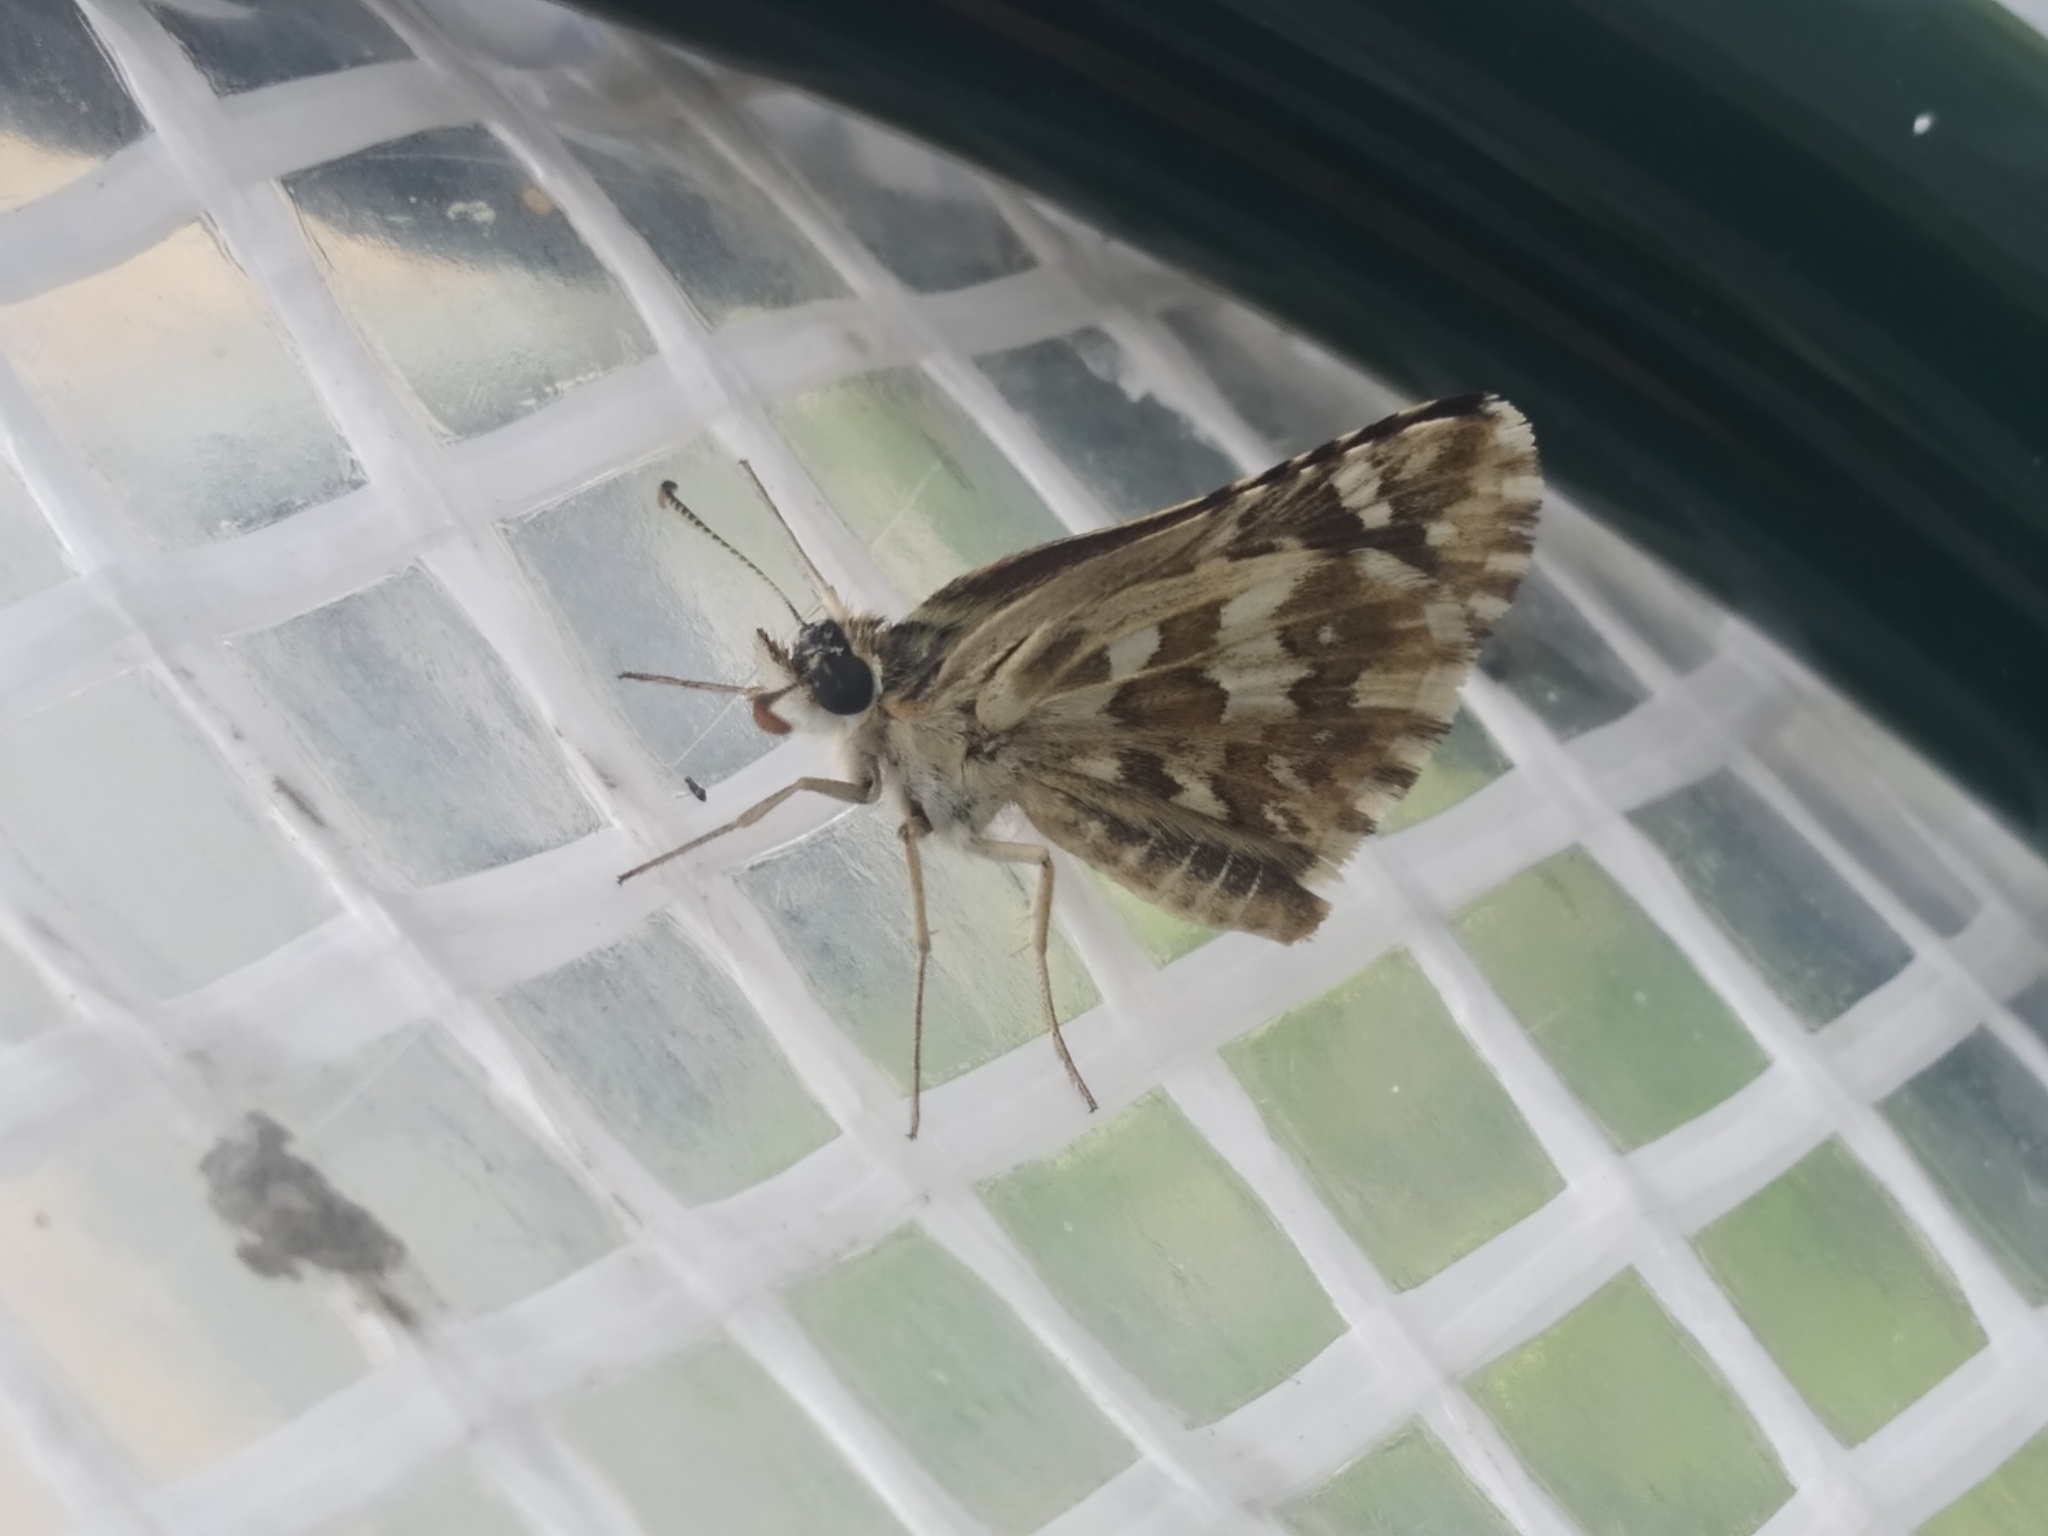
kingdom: Animalia
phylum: Arthropoda
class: Insecta
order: Lepidoptera
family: Hesperiidae
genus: Pyrgus
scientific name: Pyrgus onopordi
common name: Rosy grizzled skipper
